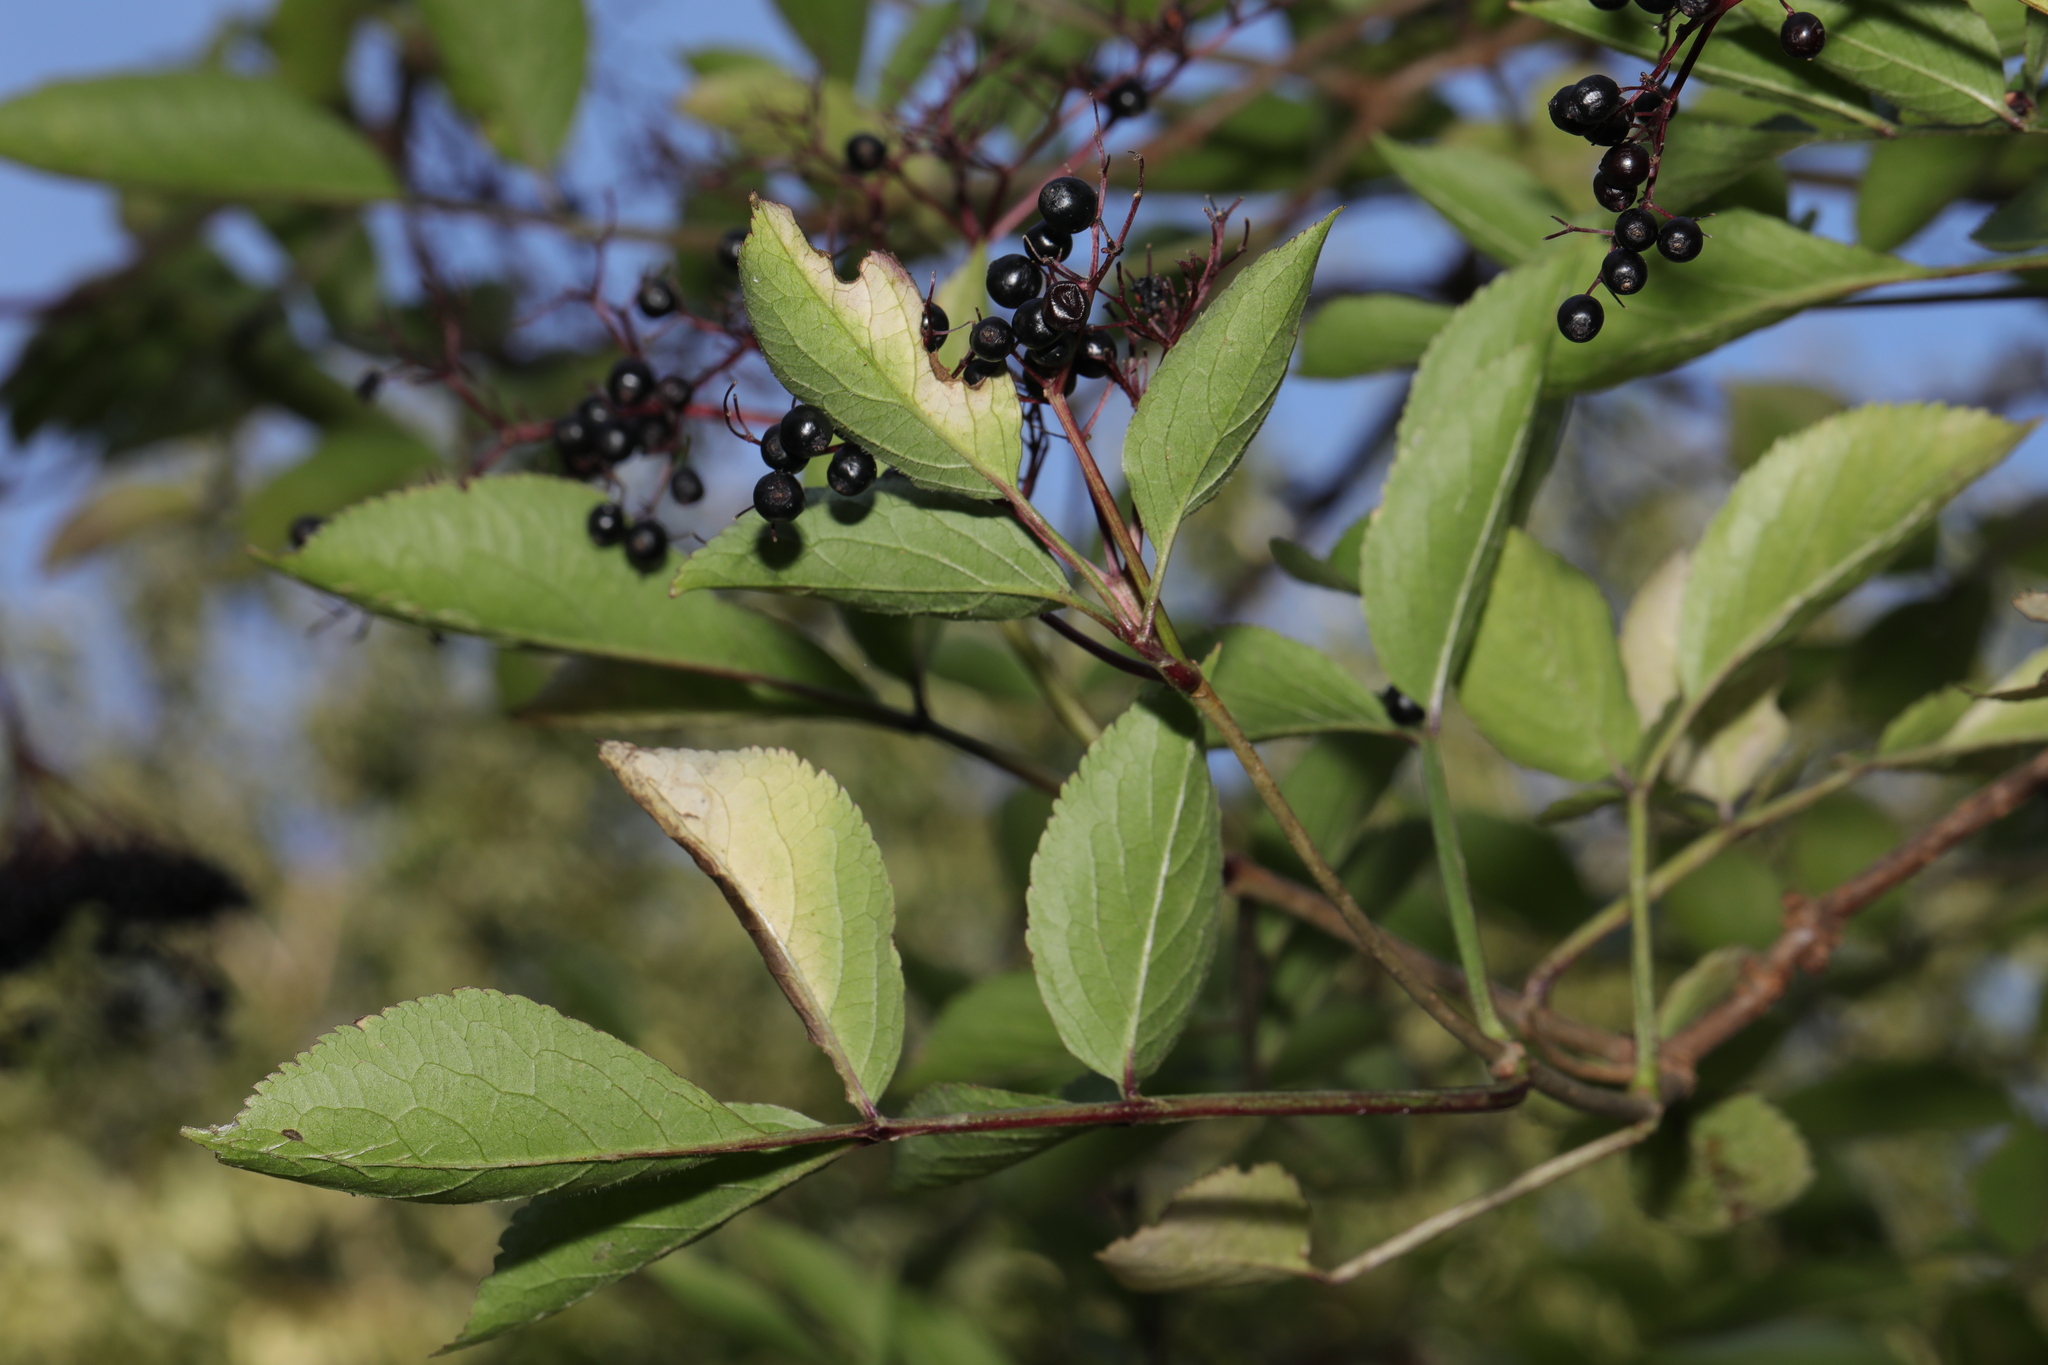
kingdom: Plantae
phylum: Tracheophyta
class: Magnoliopsida
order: Dipsacales
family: Viburnaceae
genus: Sambucus
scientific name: Sambucus nigra
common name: Elder
